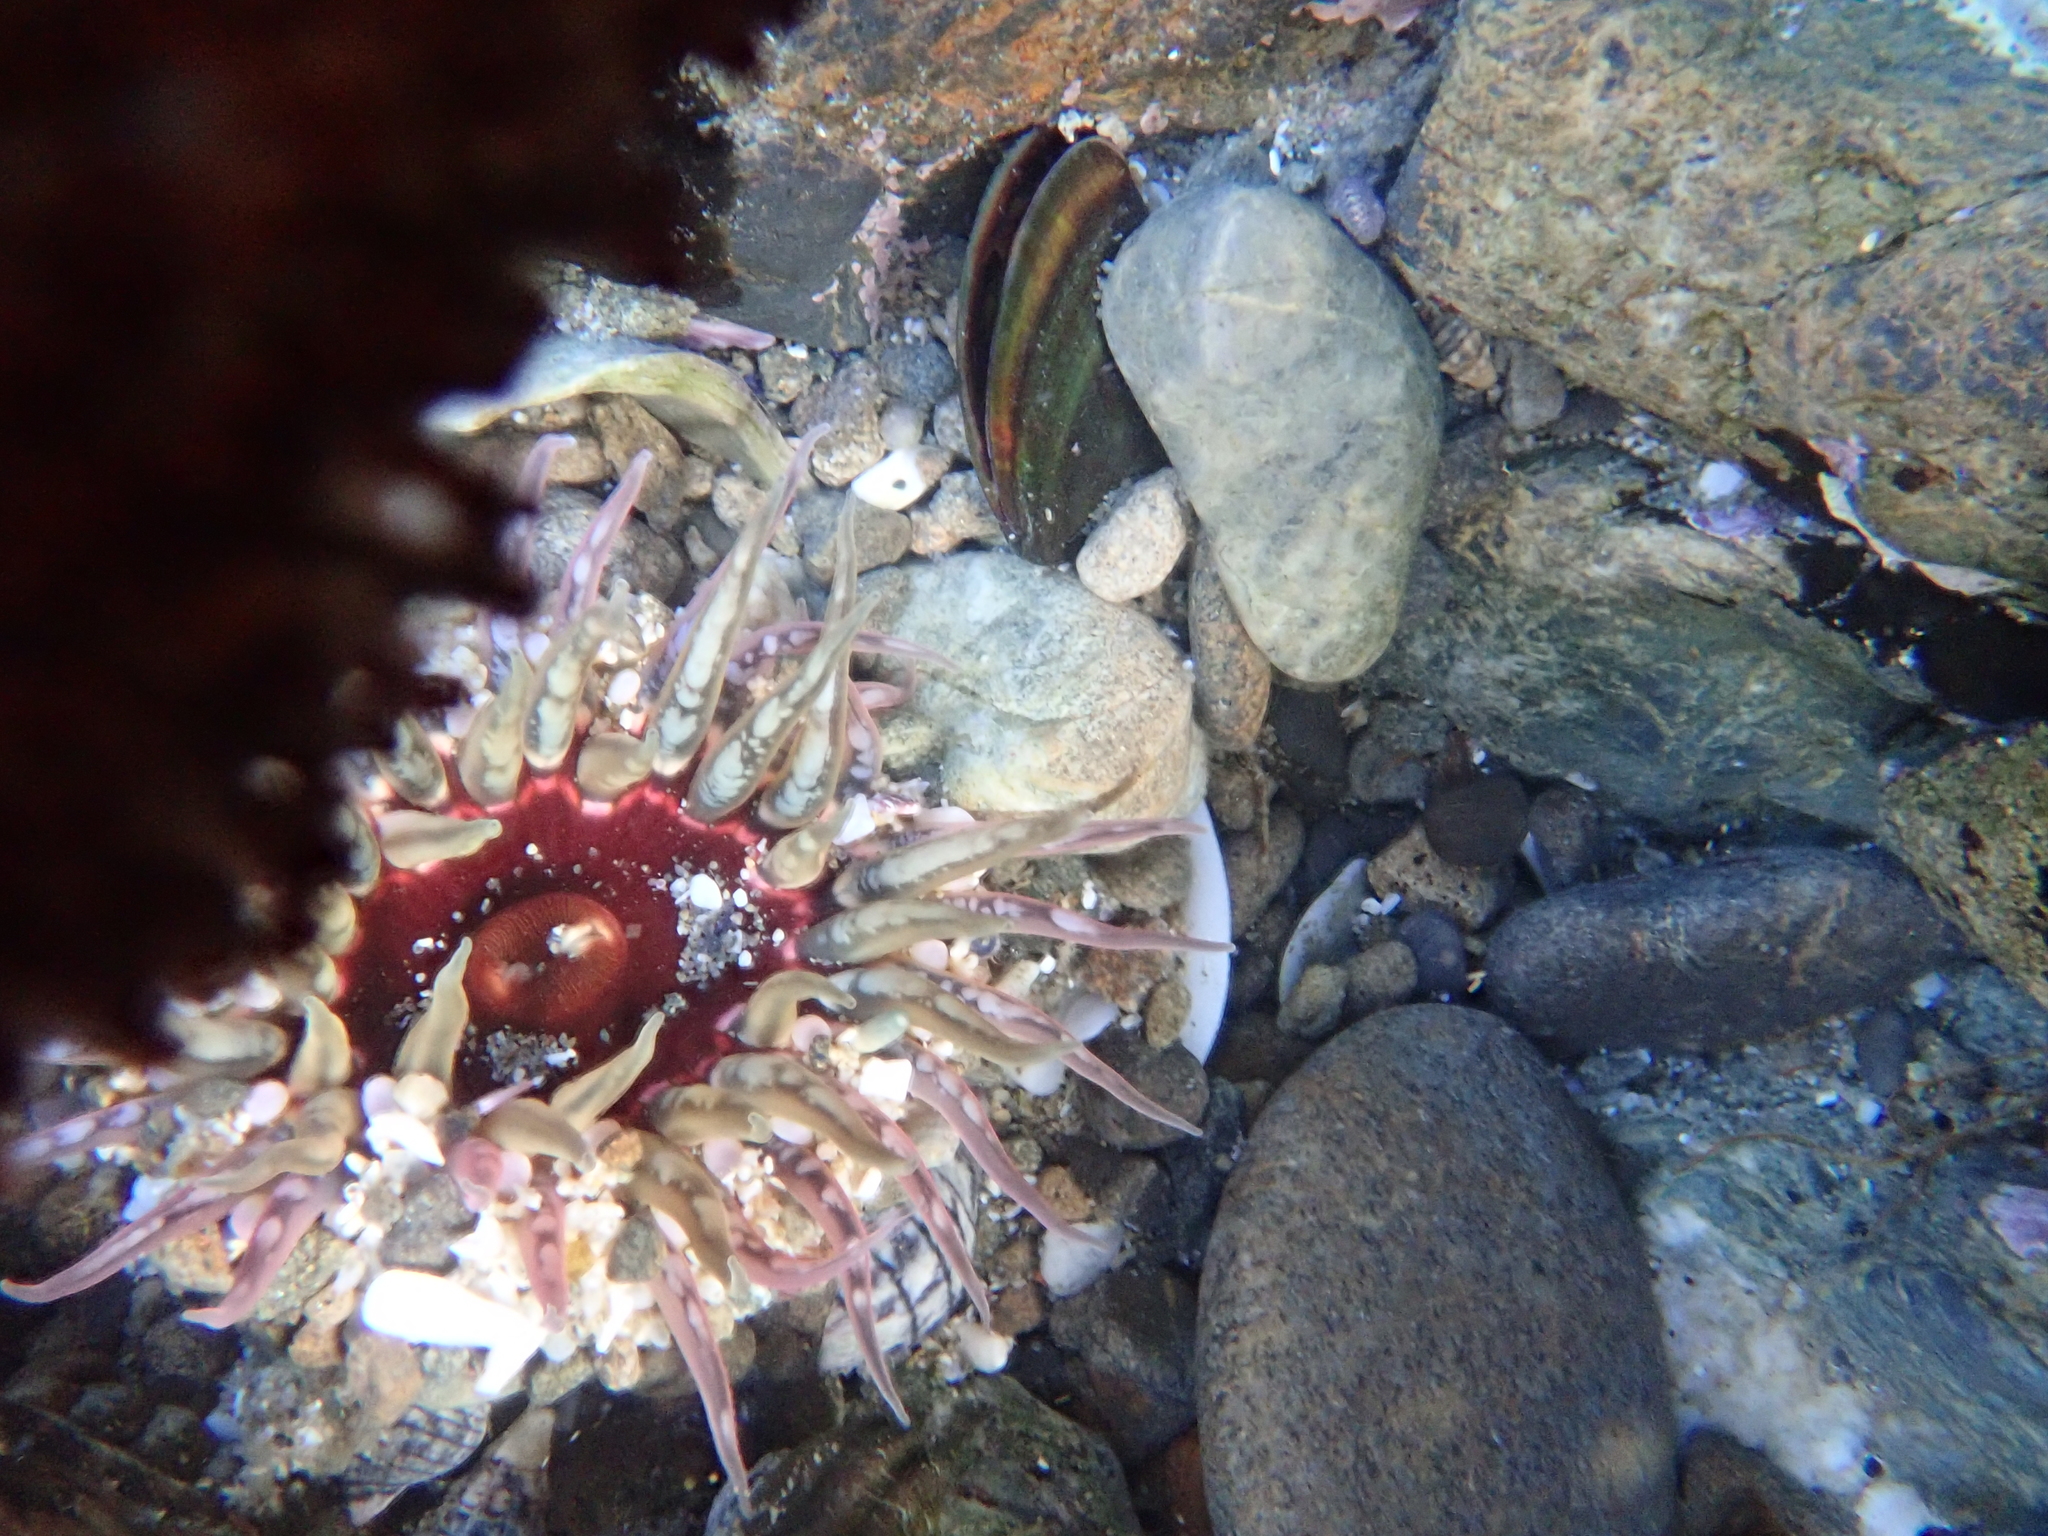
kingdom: Animalia
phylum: Cnidaria
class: Anthozoa
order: Actiniaria
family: Actiniidae
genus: Oulactis
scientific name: Oulactis muscosa
